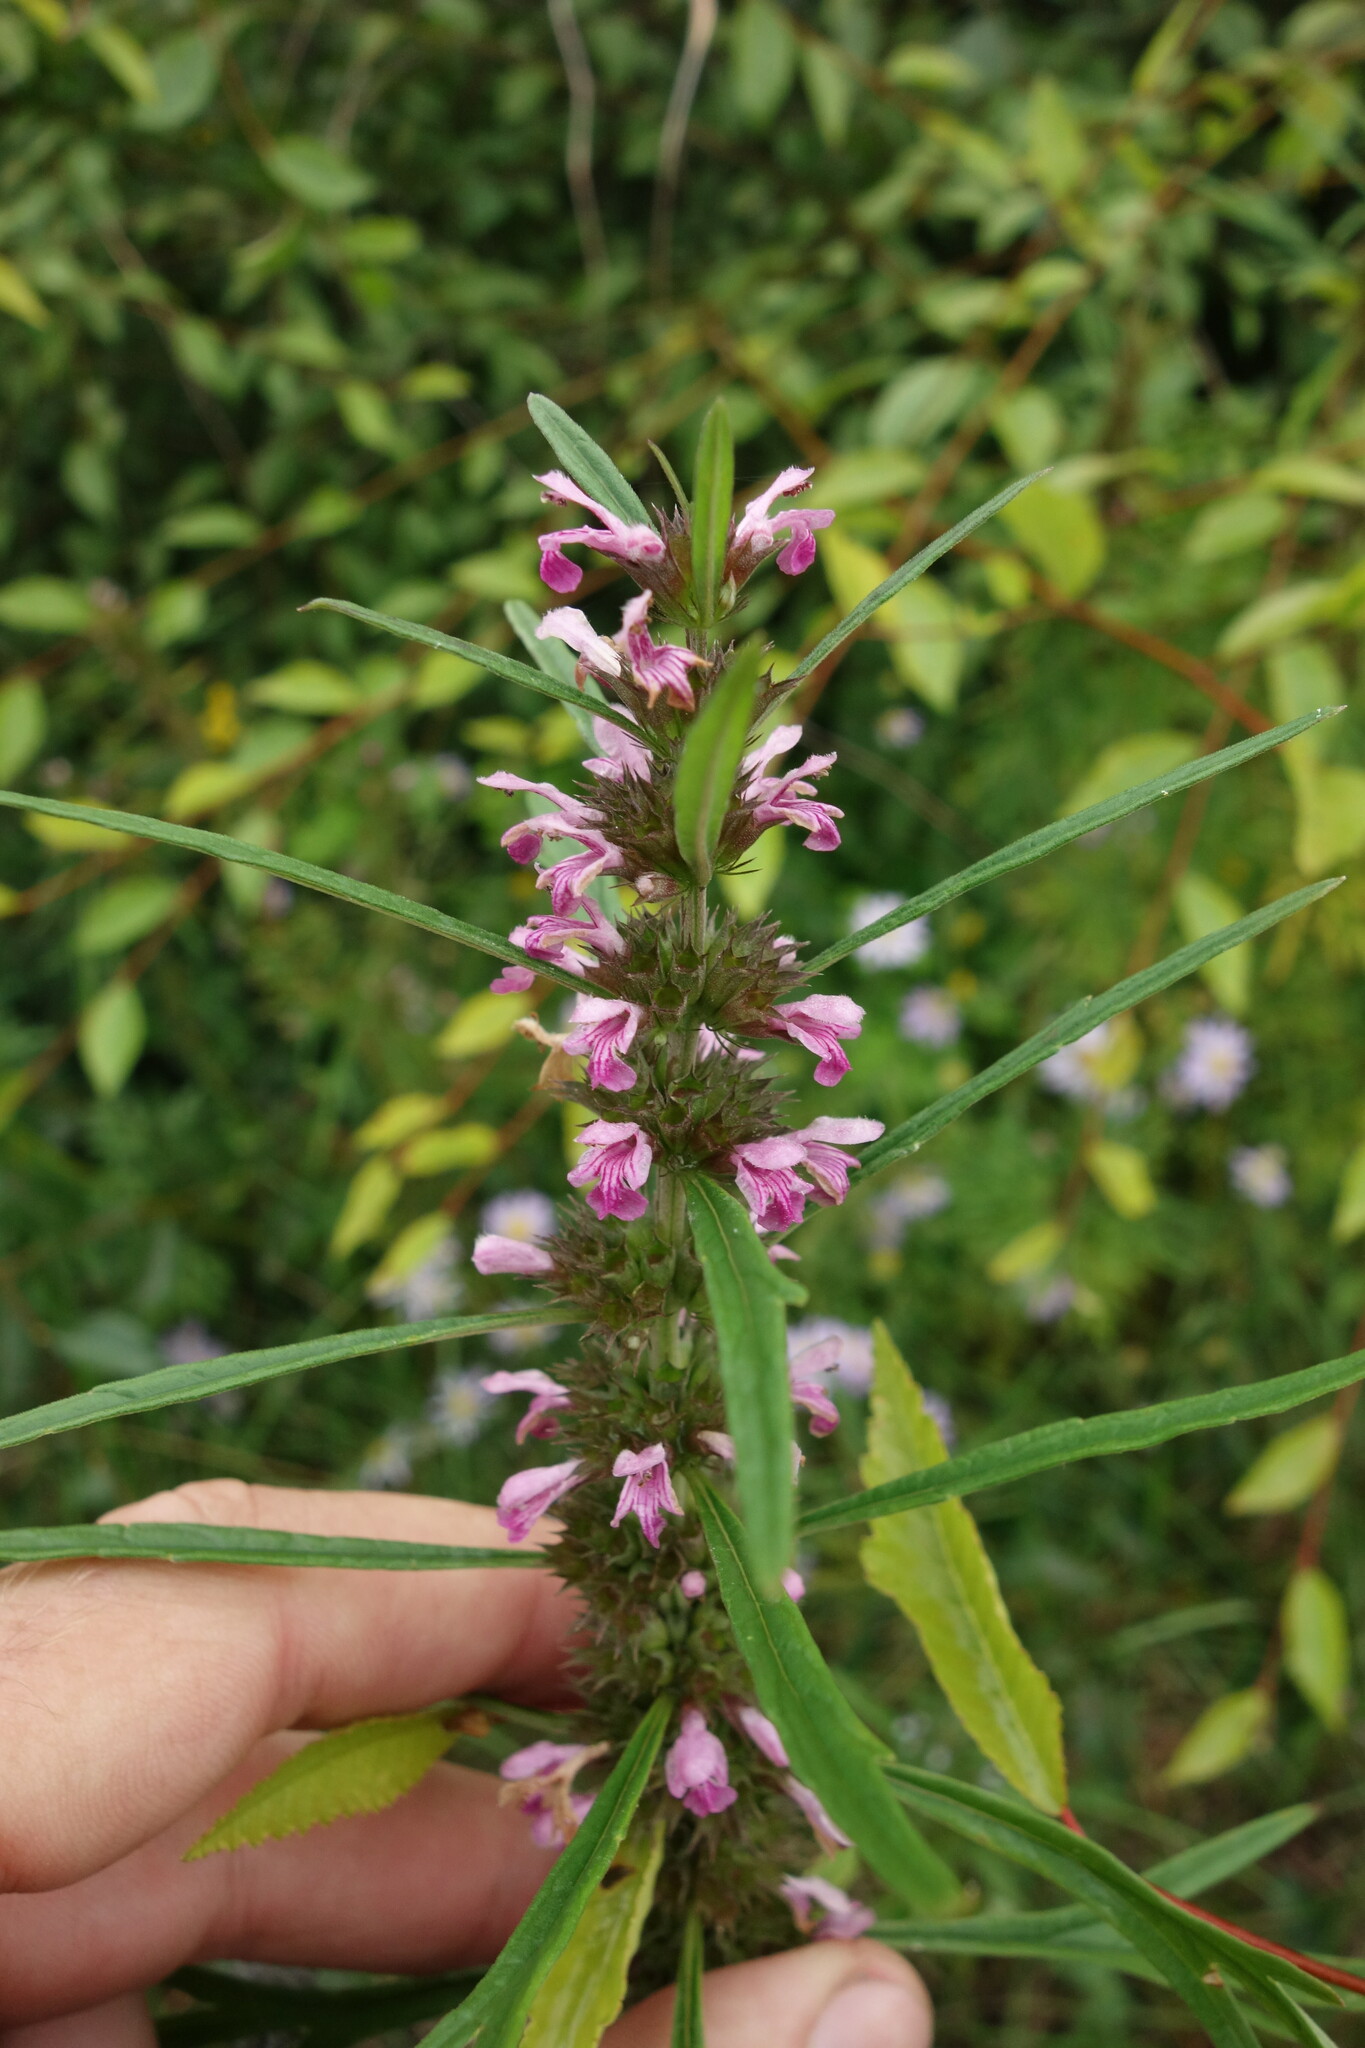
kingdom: Plantae
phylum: Tracheophyta
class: Magnoliopsida
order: Lamiales
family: Lamiaceae
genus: Leonurus
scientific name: Leonurus japonicus
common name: Honeyweed
